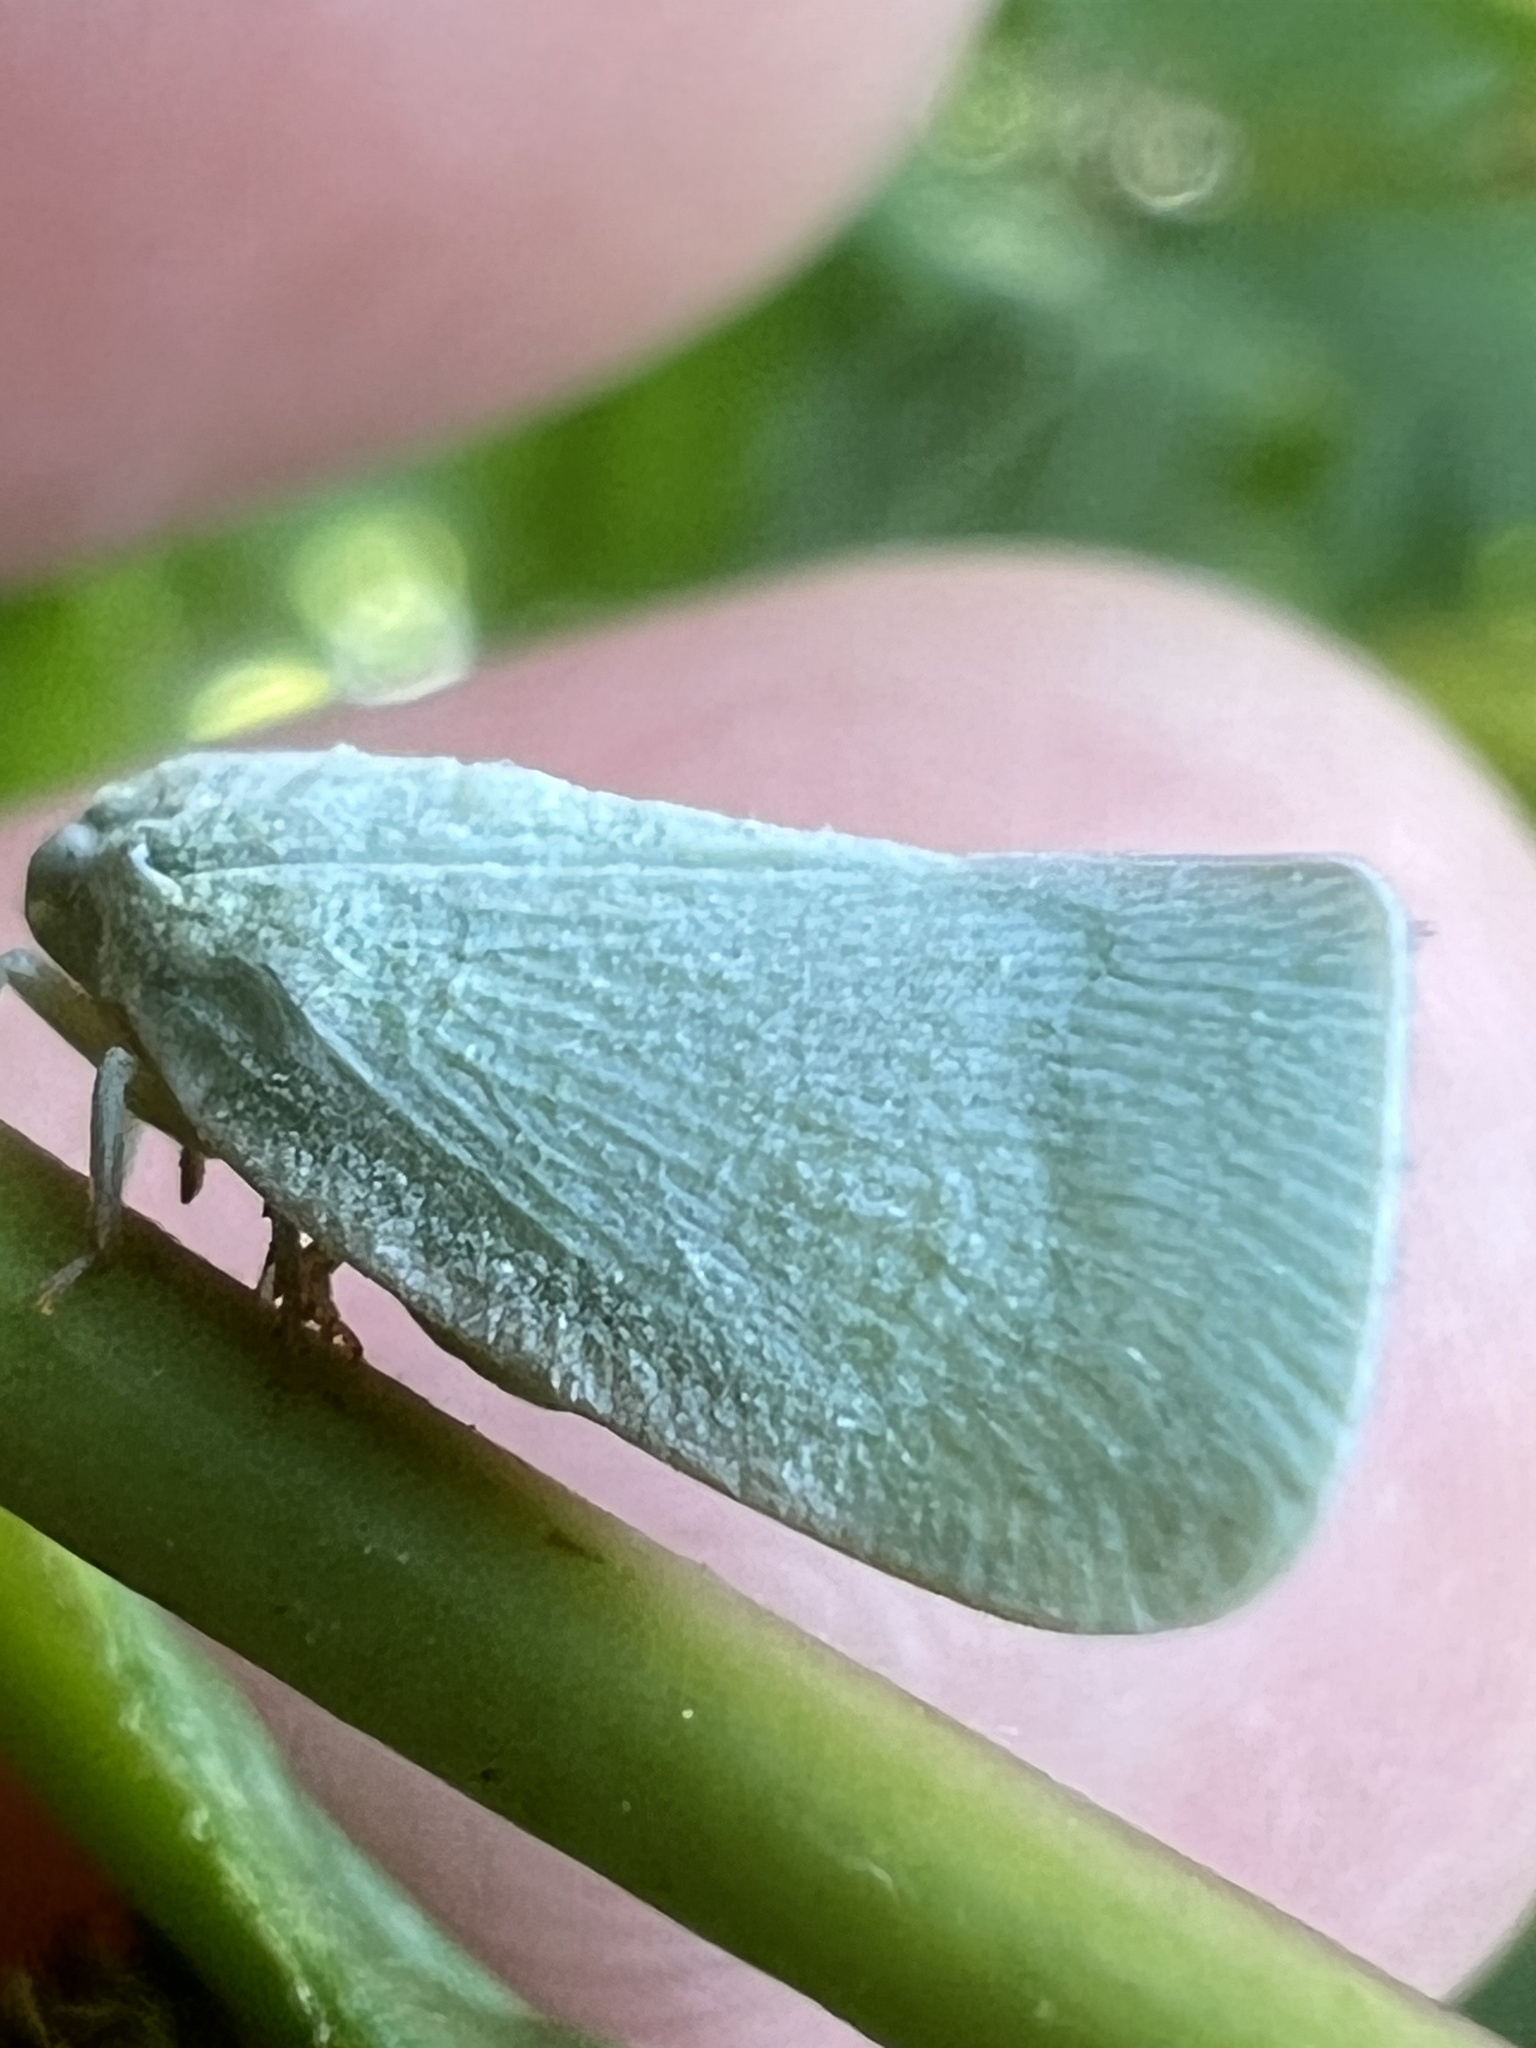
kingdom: Animalia
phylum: Arthropoda
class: Insecta
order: Hemiptera
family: Flatidae
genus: Flatormenis
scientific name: Flatormenis proxima
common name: Northern flatid planthopper
